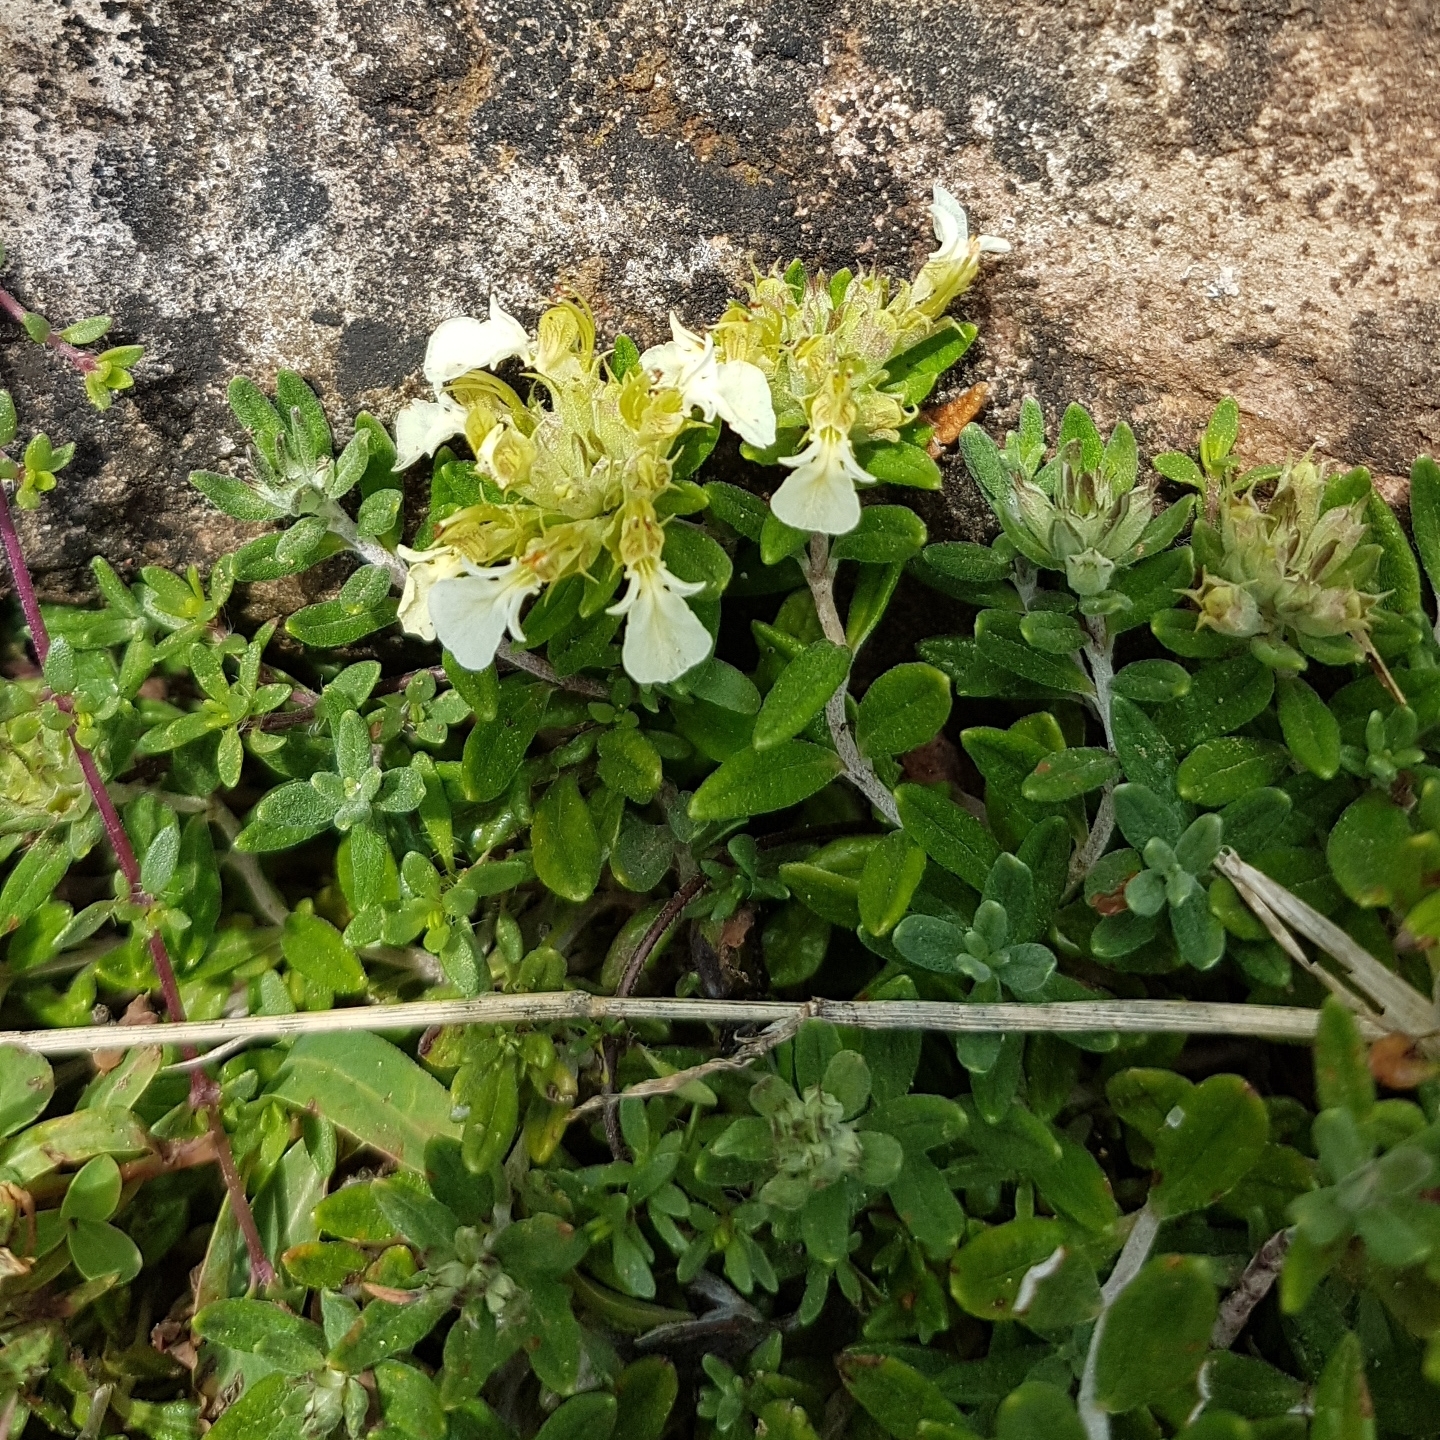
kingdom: Plantae
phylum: Tracheophyta
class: Magnoliopsida
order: Lamiales
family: Lamiaceae
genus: Teucrium
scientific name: Teucrium montanum
